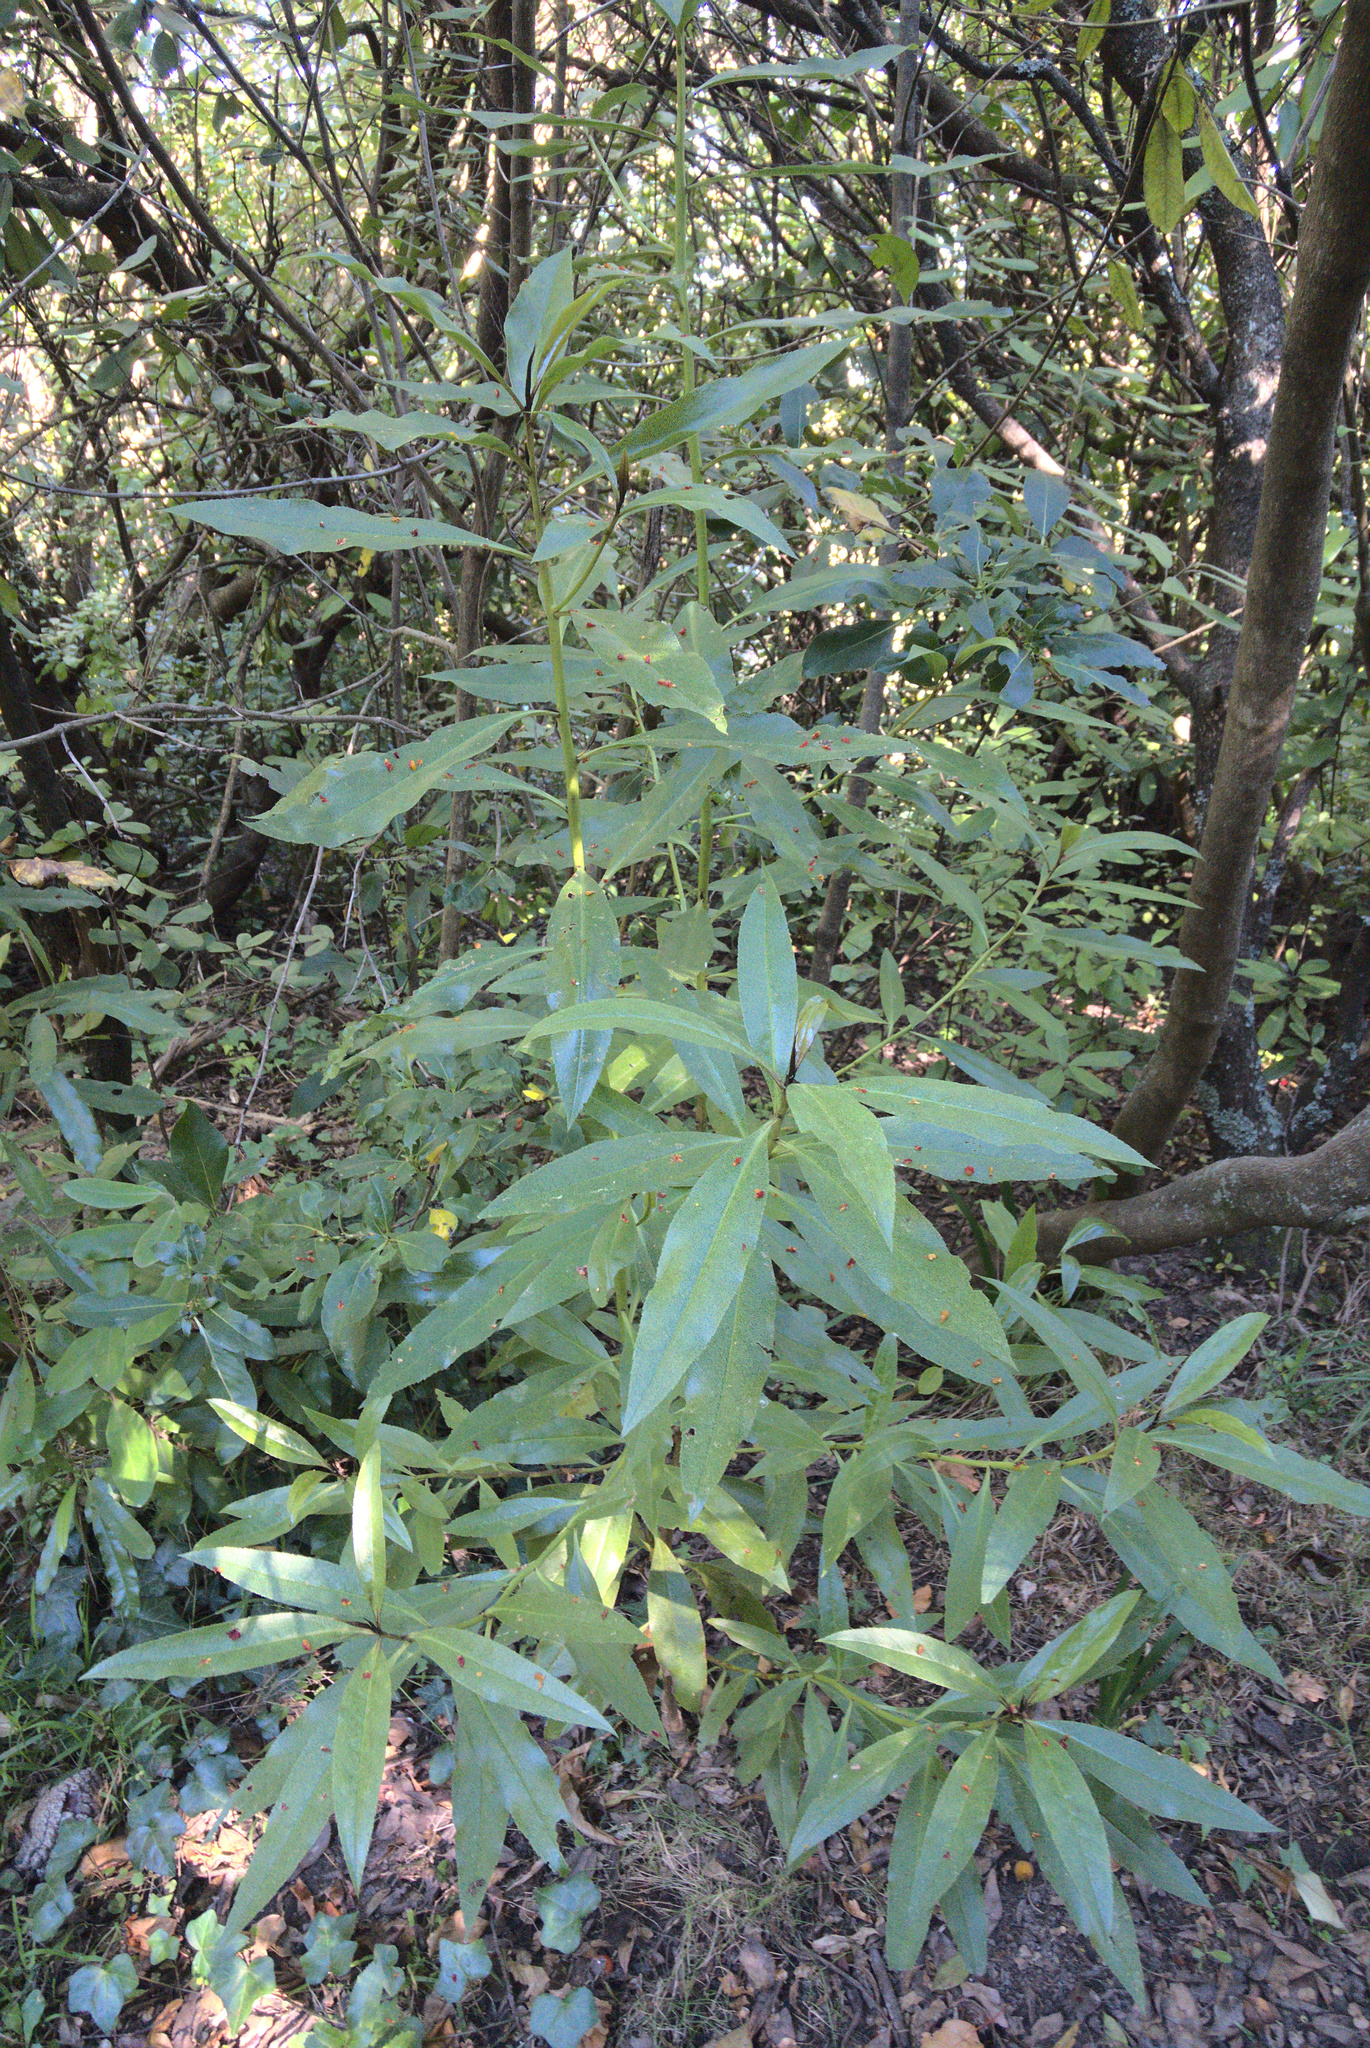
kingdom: Plantae
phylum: Tracheophyta
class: Magnoliopsida
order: Lamiales
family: Scrophulariaceae
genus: Myoporum
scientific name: Myoporum laetum
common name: Ngaio tree
